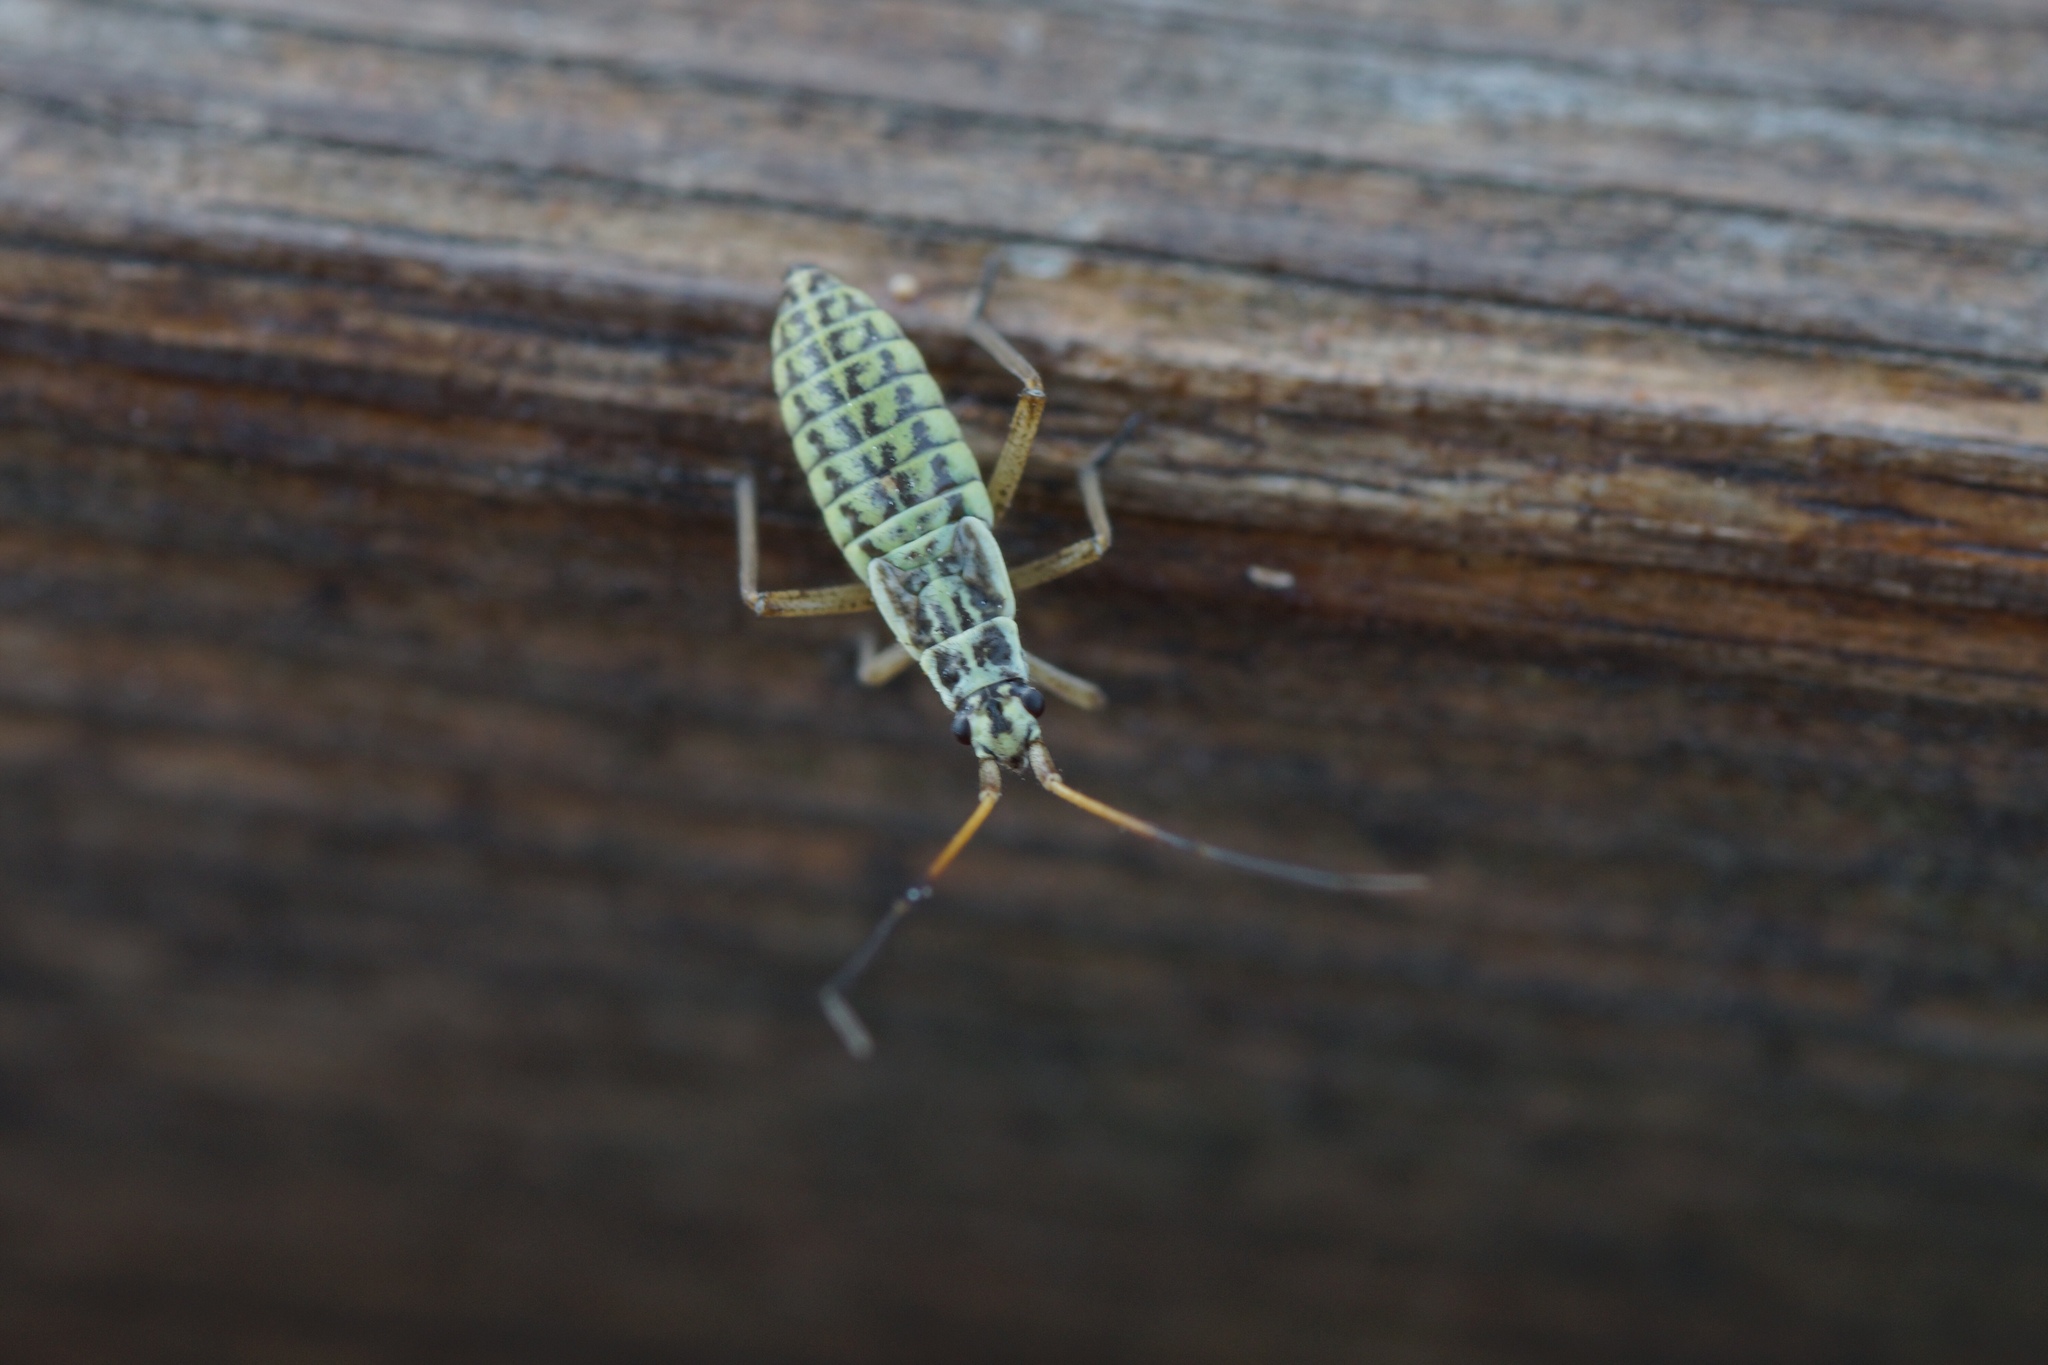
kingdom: Animalia
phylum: Arthropoda
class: Insecta
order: Hemiptera
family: Miridae
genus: Leptopterna
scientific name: Leptopterna dolabrata
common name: Meadow plant bug
